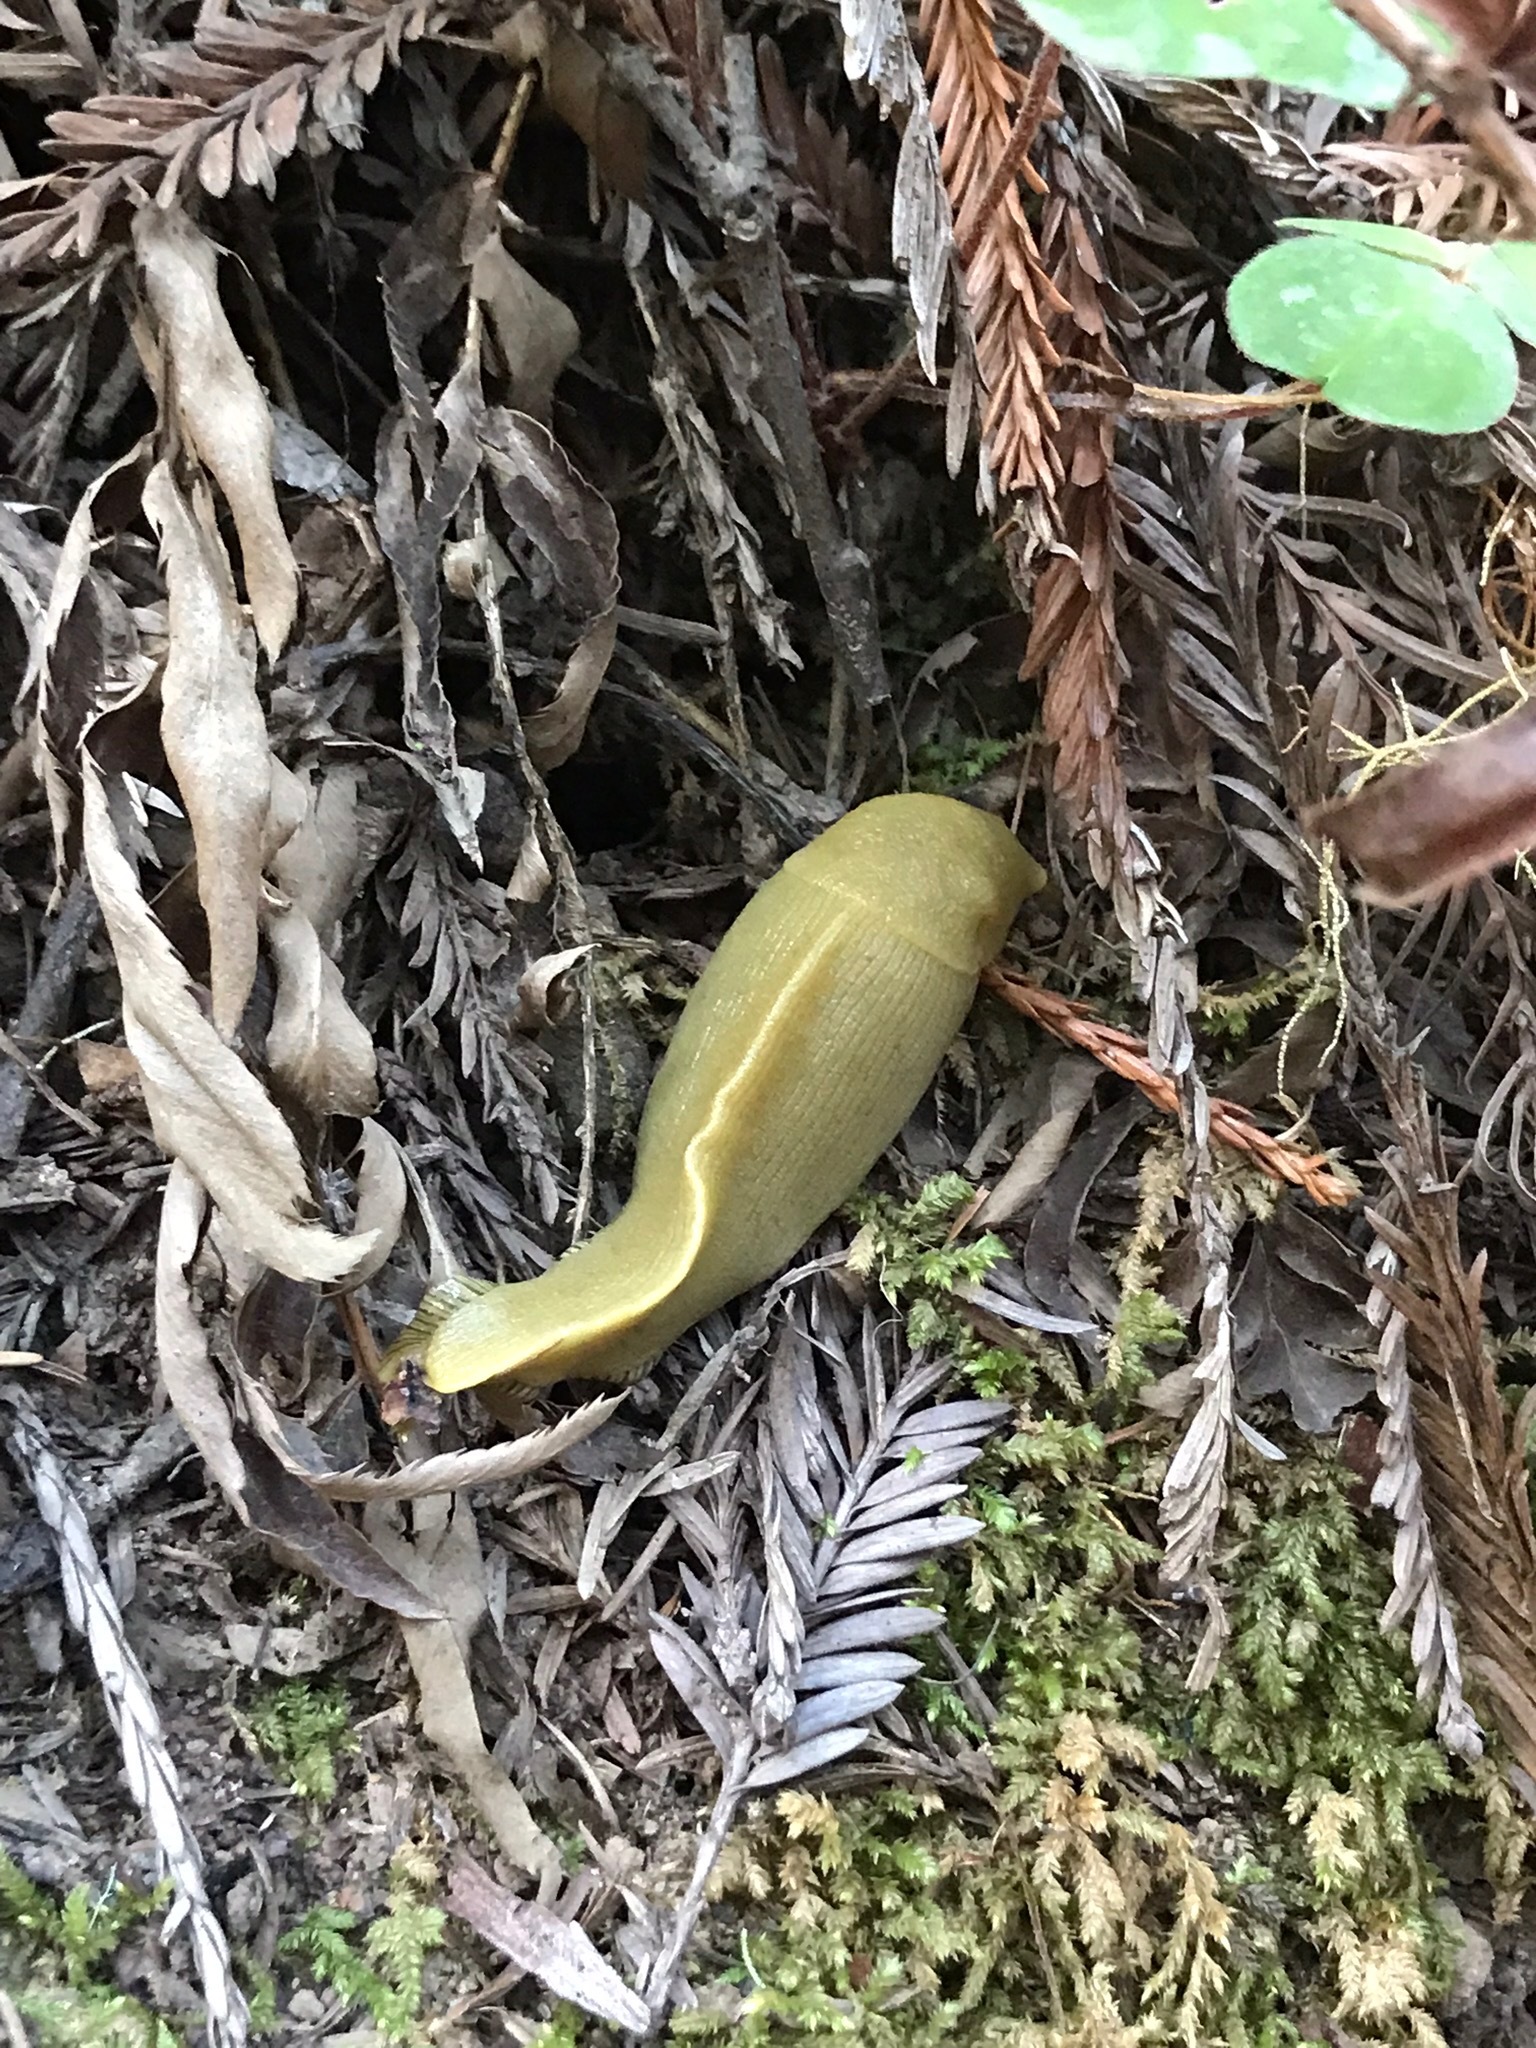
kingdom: Animalia
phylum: Mollusca
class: Gastropoda
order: Stylommatophora
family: Ariolimacidae
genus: Ariolimax
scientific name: Ariolimax buttoni
